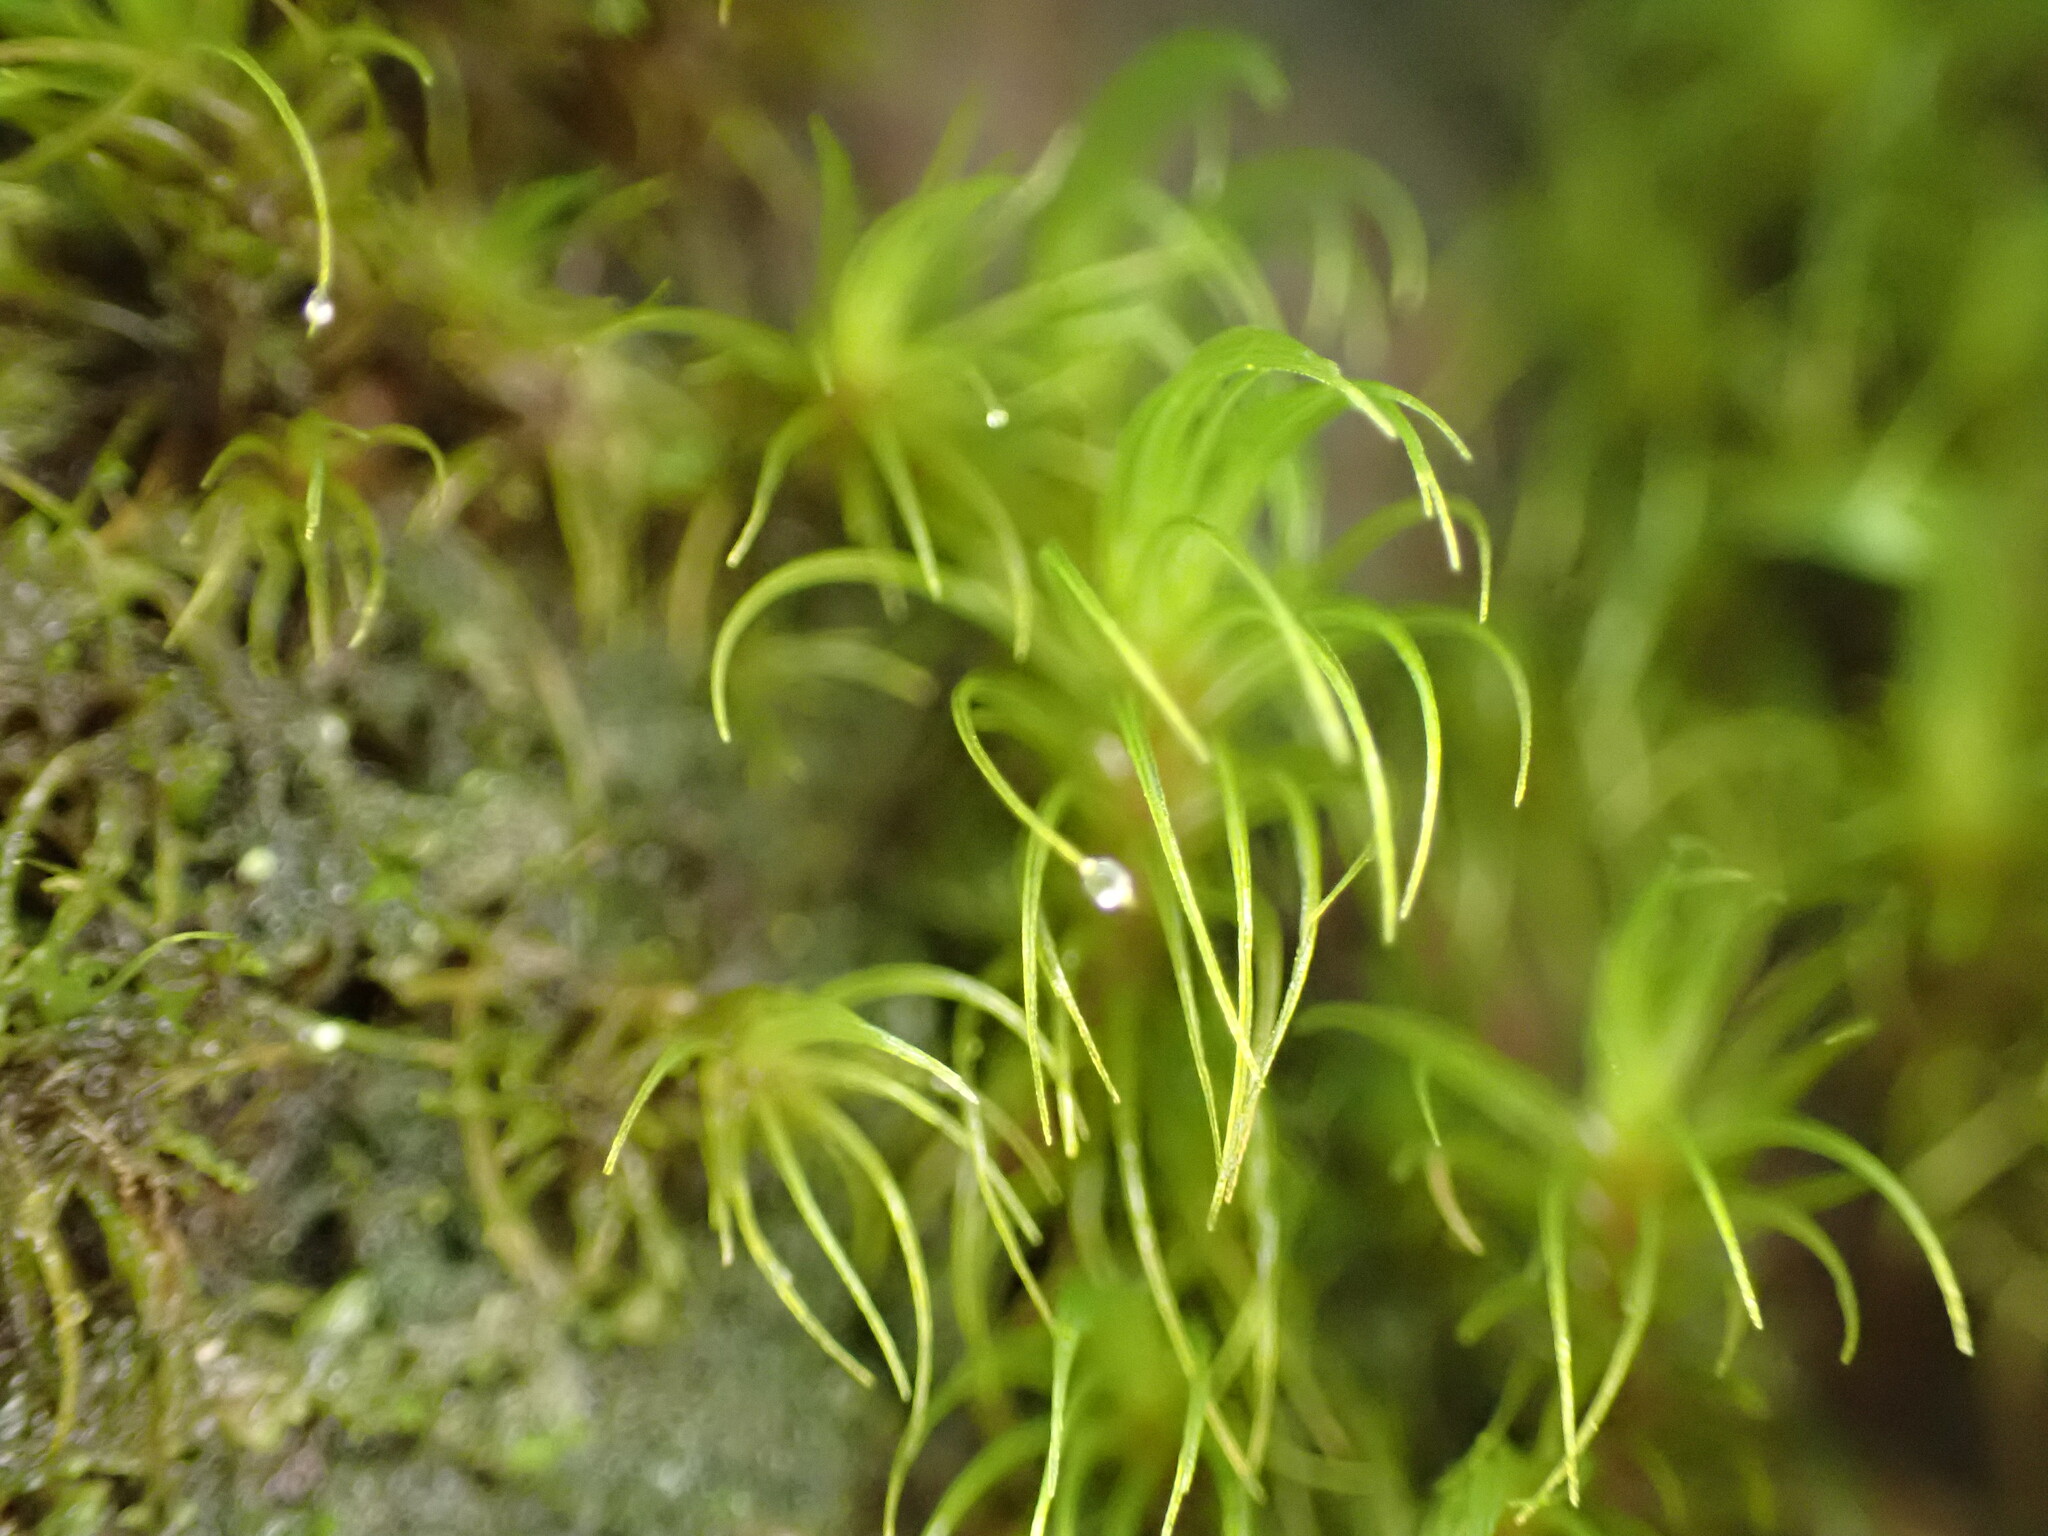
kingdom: Plantae
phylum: Bryophyta
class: Bryopsida
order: Dicranales
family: Dicranaceae
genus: Dicranum
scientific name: Dicranum fuscescens
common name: Curly heron's-bill moss
